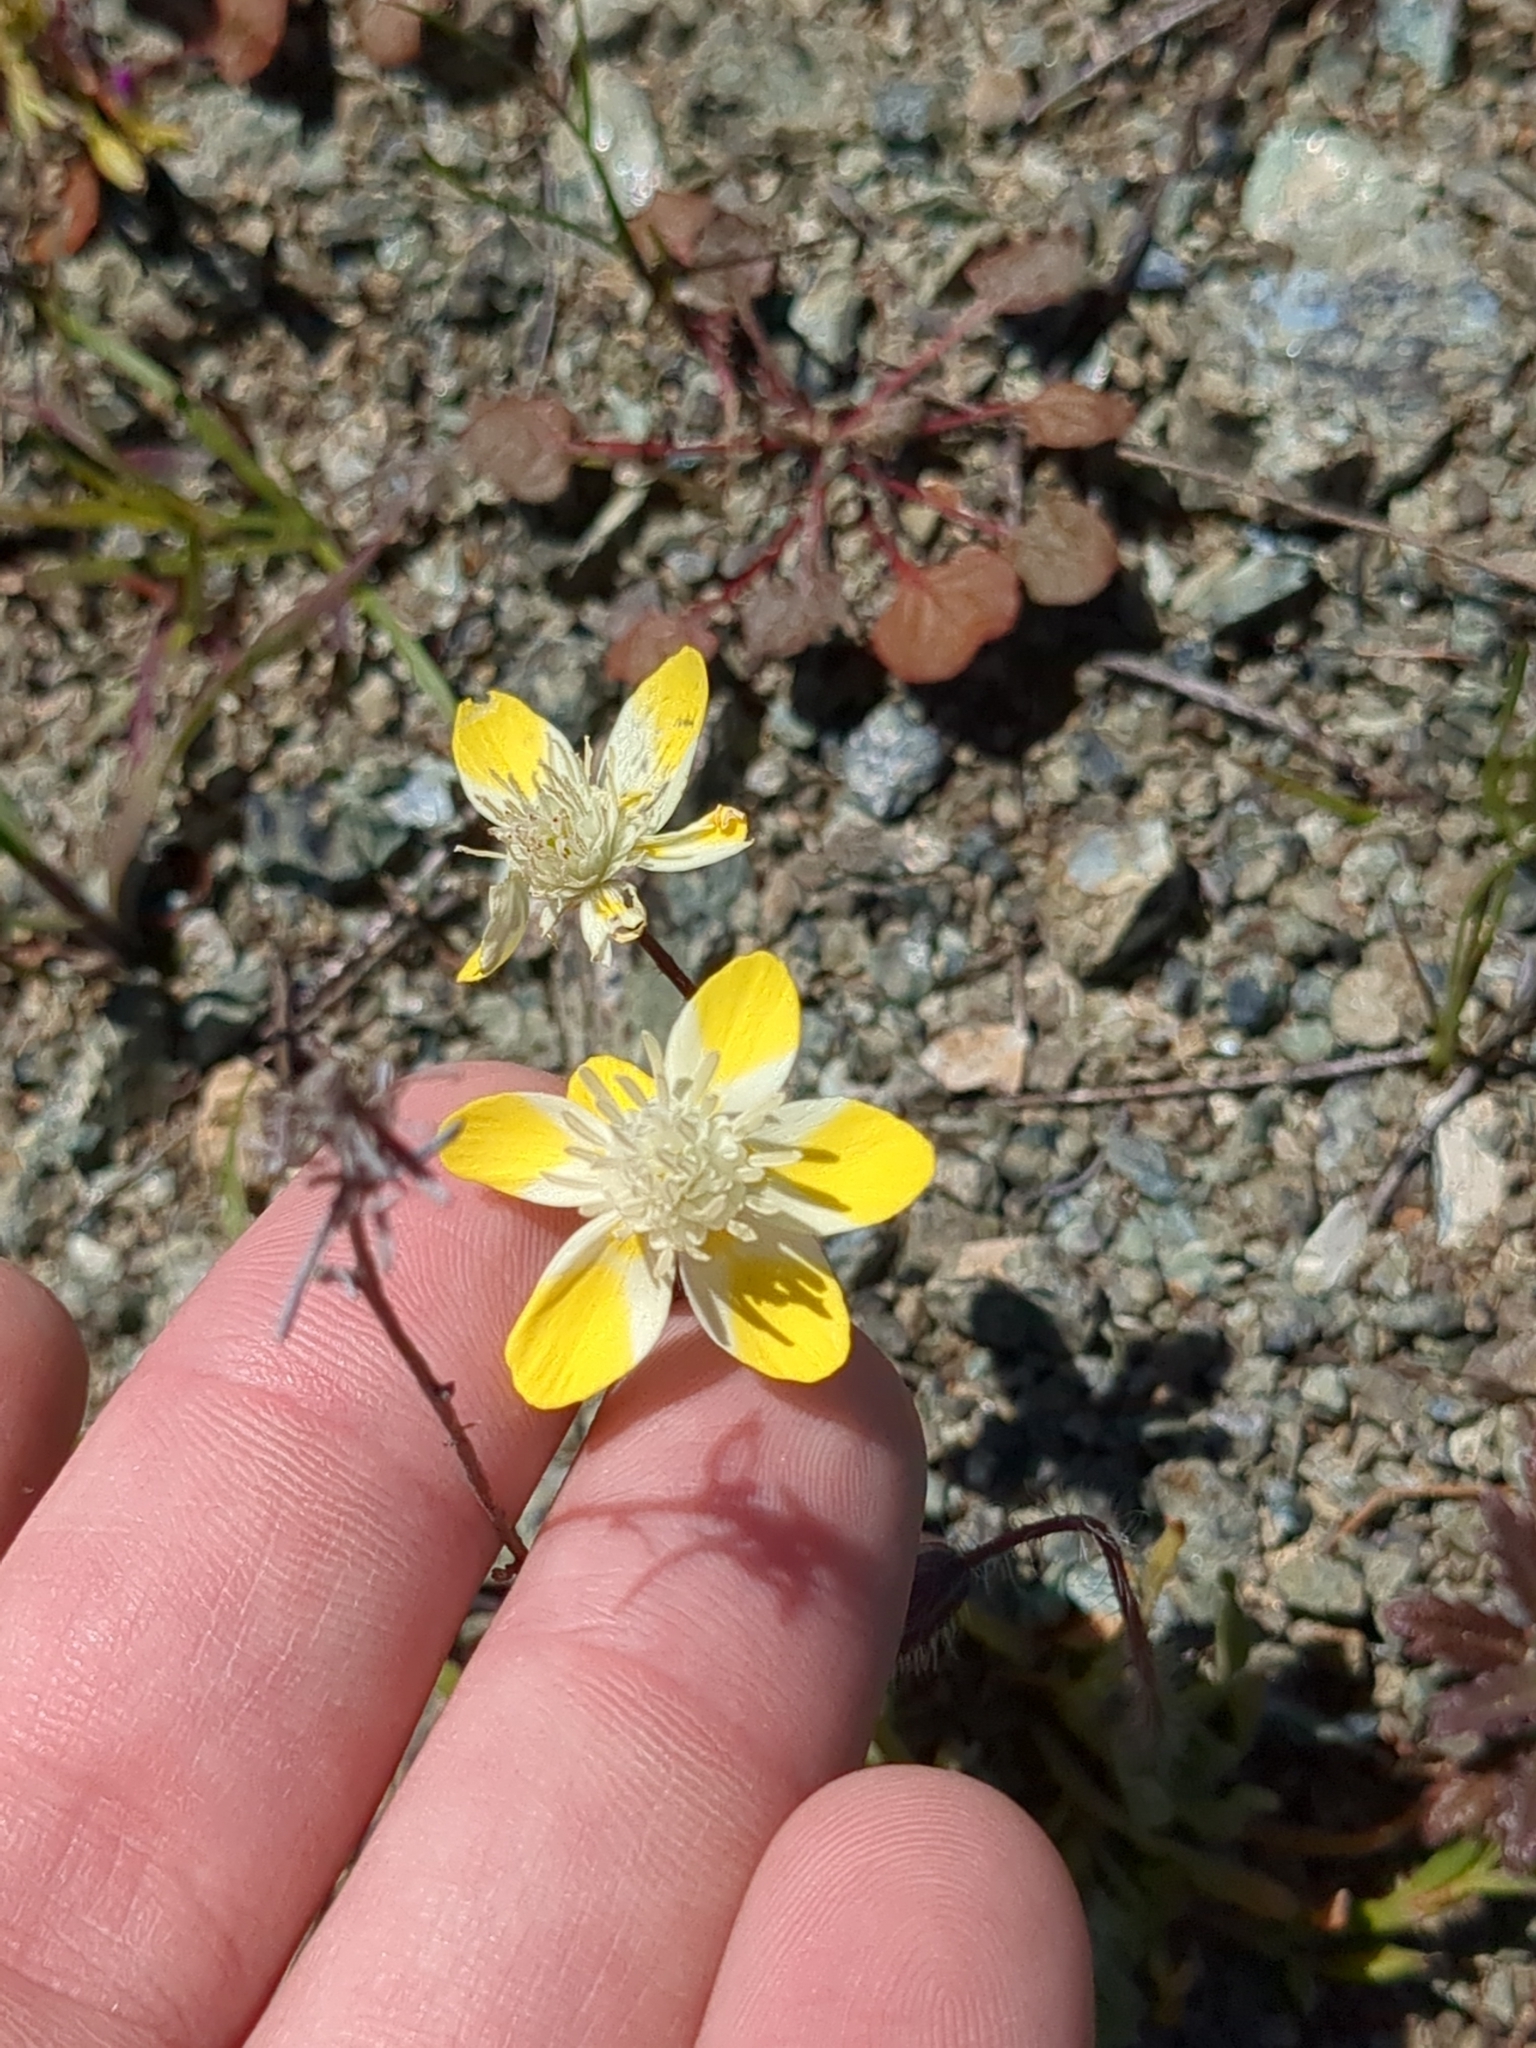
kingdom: Plantae
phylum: Tracheophyta
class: Magnoliopsida
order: Ranunculales
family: Papaveraceae
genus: Platystemon
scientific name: Platystemon californicus
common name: Cream-cups
